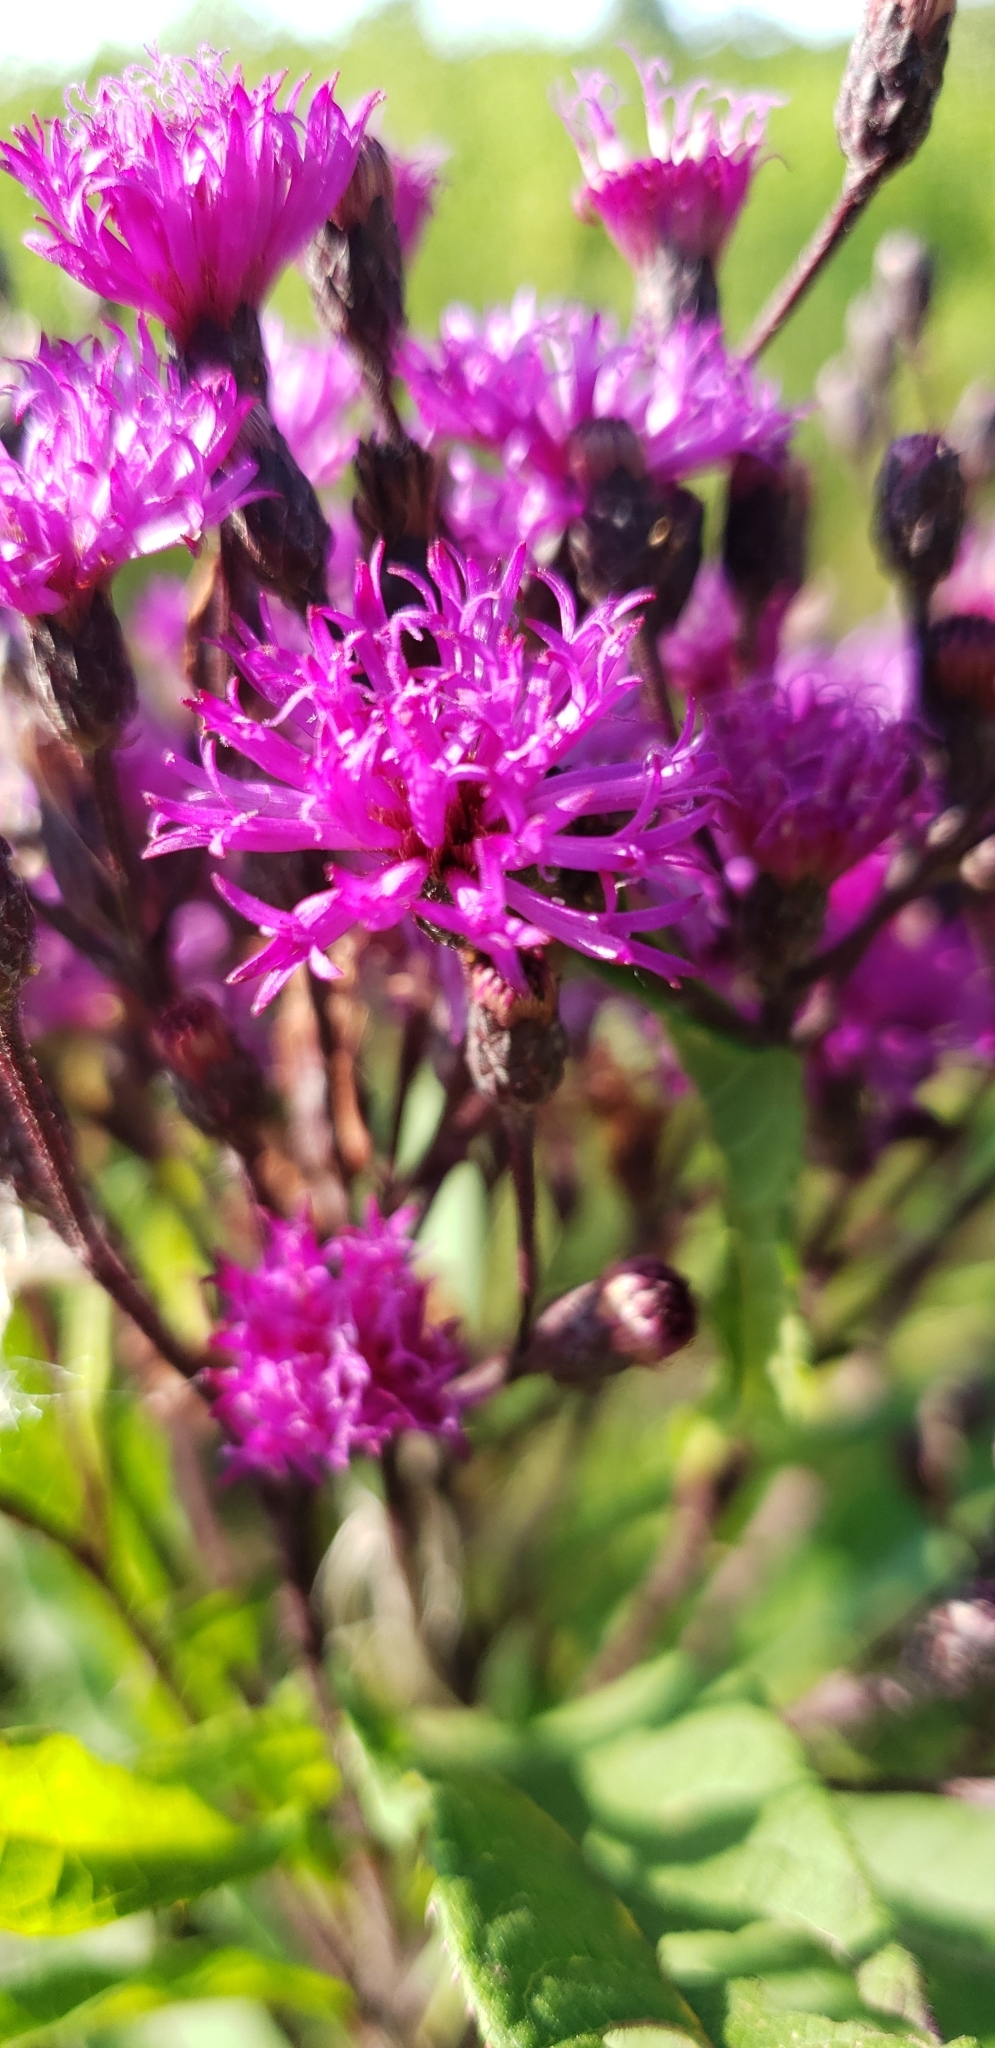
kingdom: Plantae
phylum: Tracheophyta
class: Magnoliopsida
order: Asterales
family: Asteraceae
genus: Vernonia
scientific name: Vernonia gigantea
